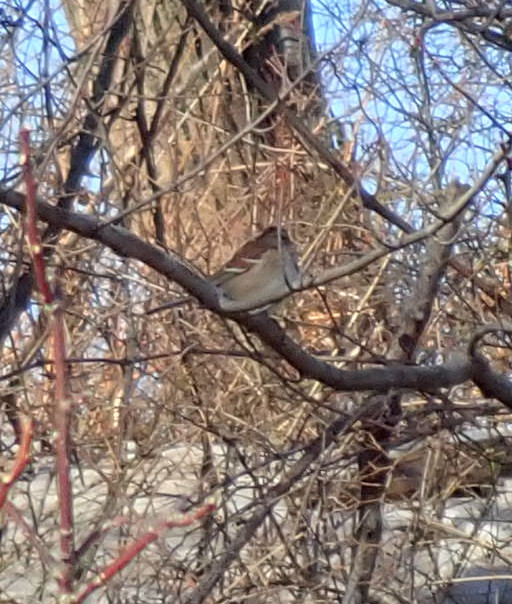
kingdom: Animalia
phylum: Chordata
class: Aves
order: Passeriformes
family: Passerellidae
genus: Spizelloides
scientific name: Spizelloides arborea
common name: American tree sparrow
